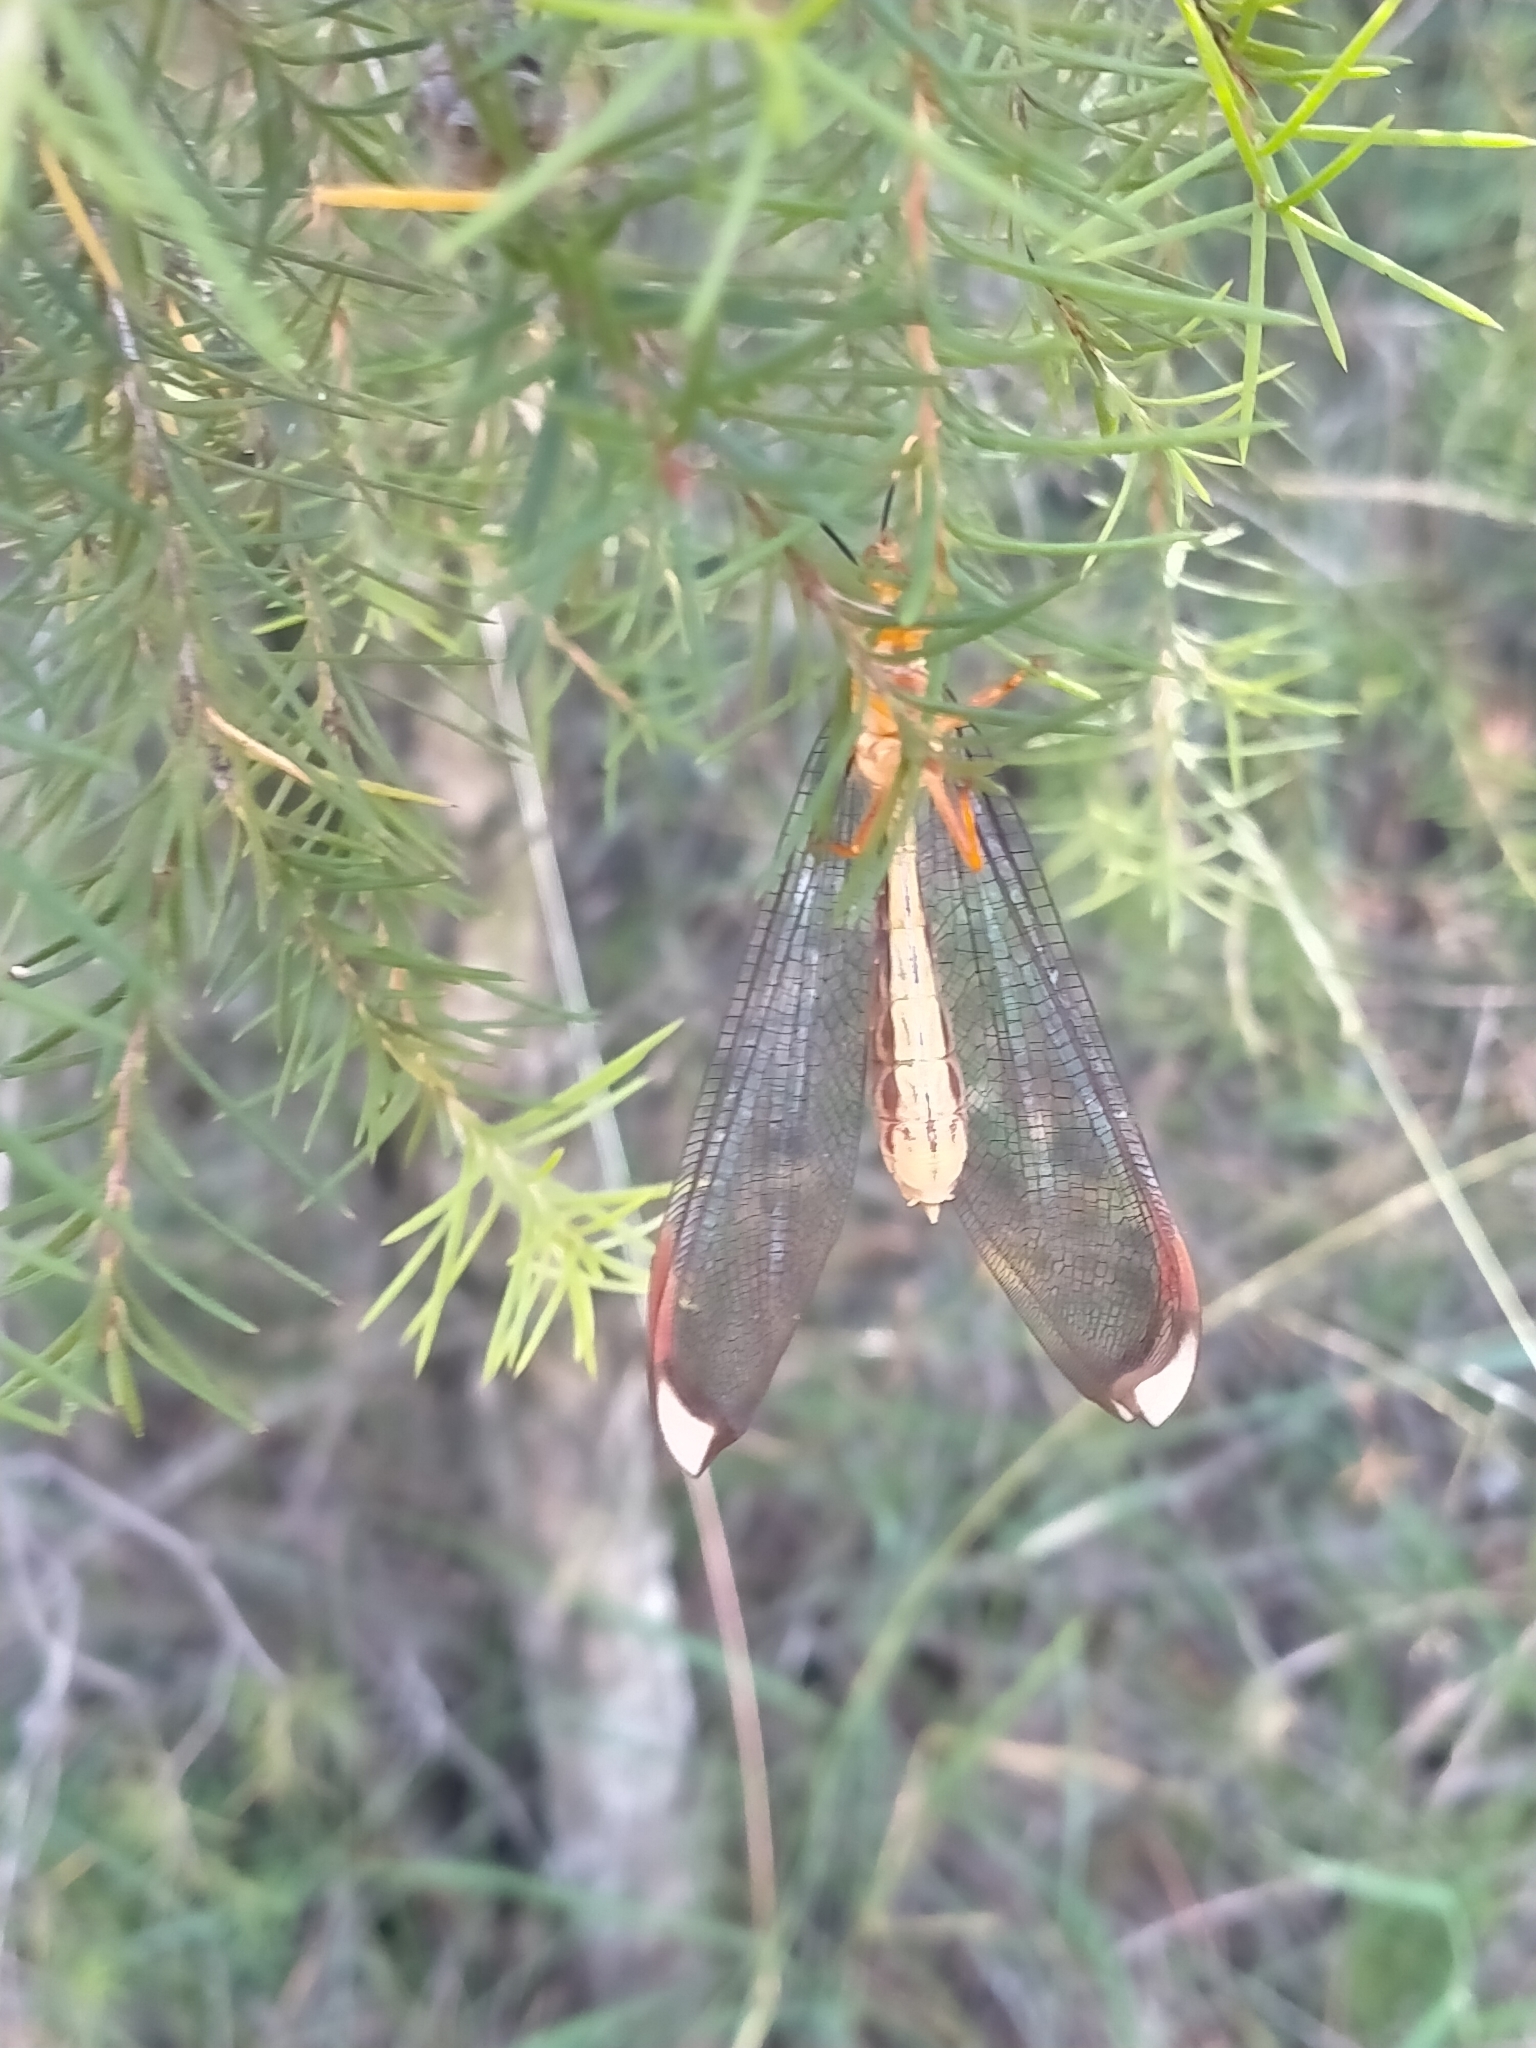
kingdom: Animalia
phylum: Arthropoda
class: Insecta
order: Neuroptera
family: Nymphidae
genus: Nymphes
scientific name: Nymphes myrmeleonoides
